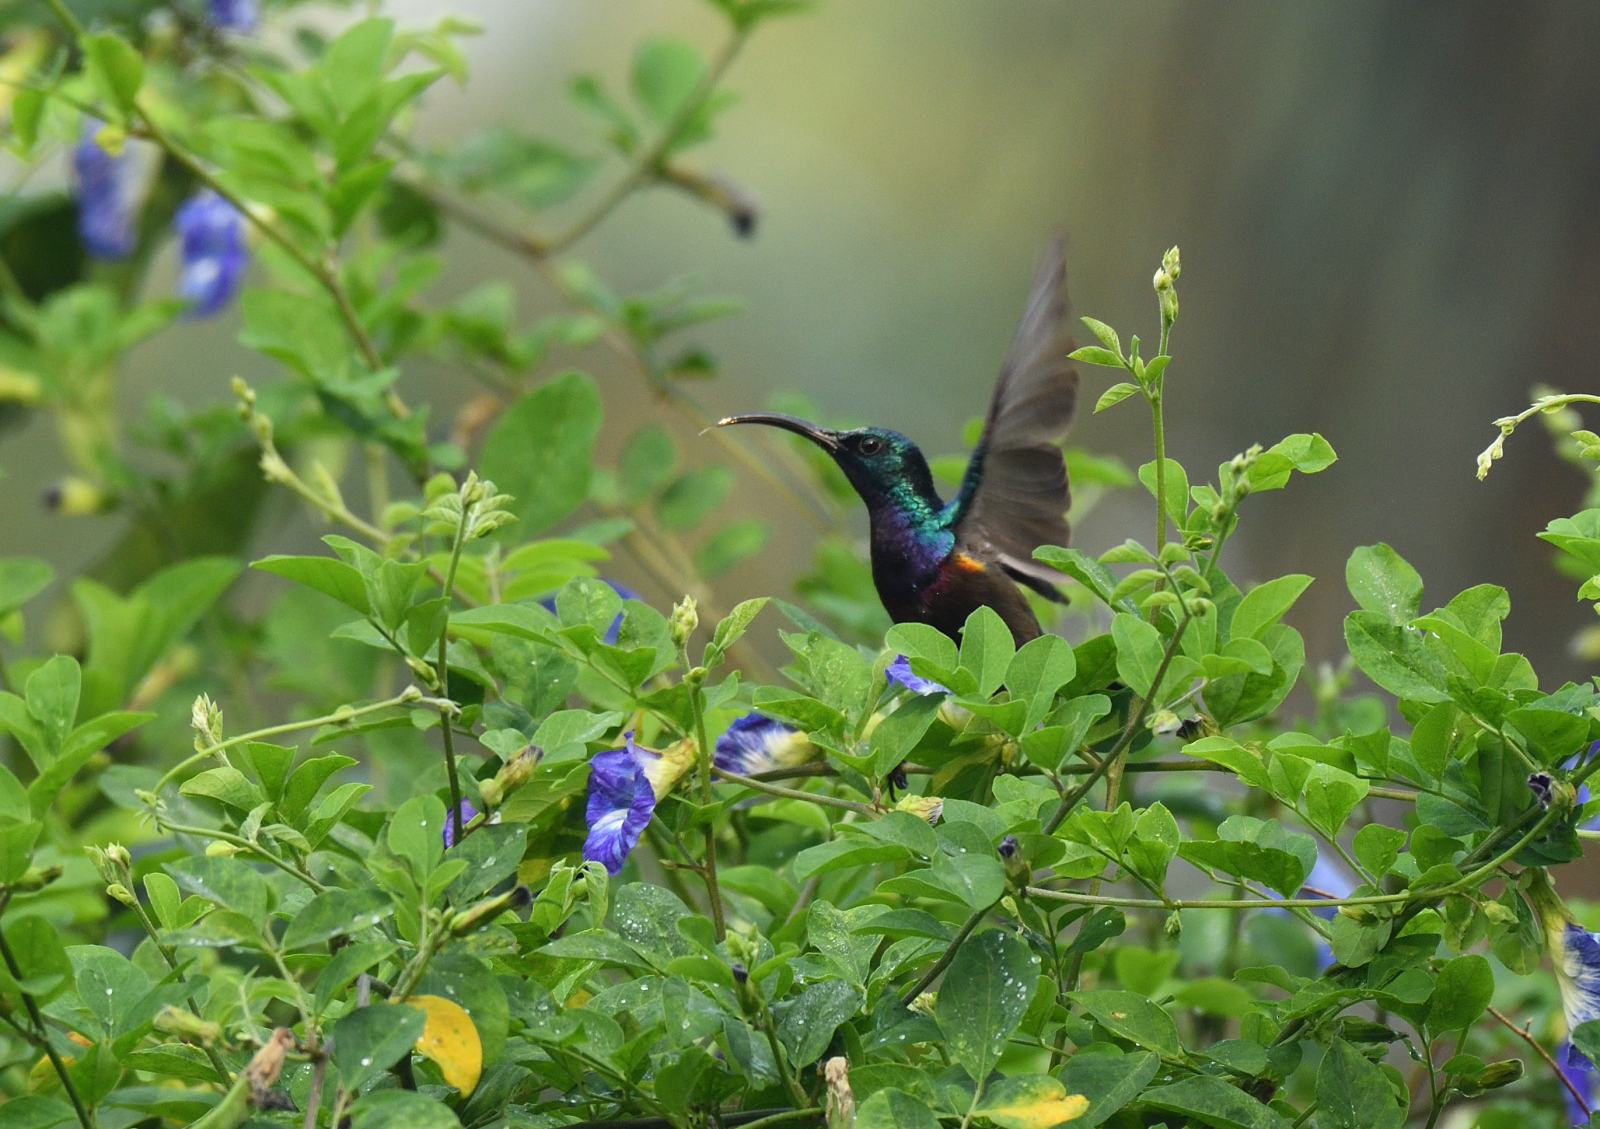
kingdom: Animalia
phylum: Chordata
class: Aves
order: Passeriformes
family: Nectariniidae
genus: Cinnyris
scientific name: Cinnyris lotenius
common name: Loten's sunbird
